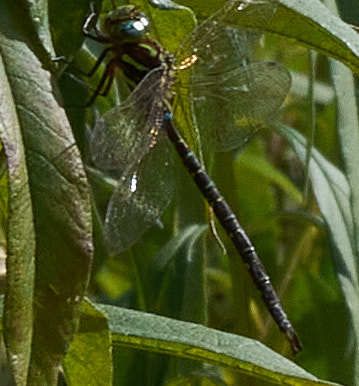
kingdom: Animalia
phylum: Arthropoda
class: Insecta
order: Odonata
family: Aeshnidae
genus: Aeshna
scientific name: Aeshna umbrosa
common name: Shadow darner
